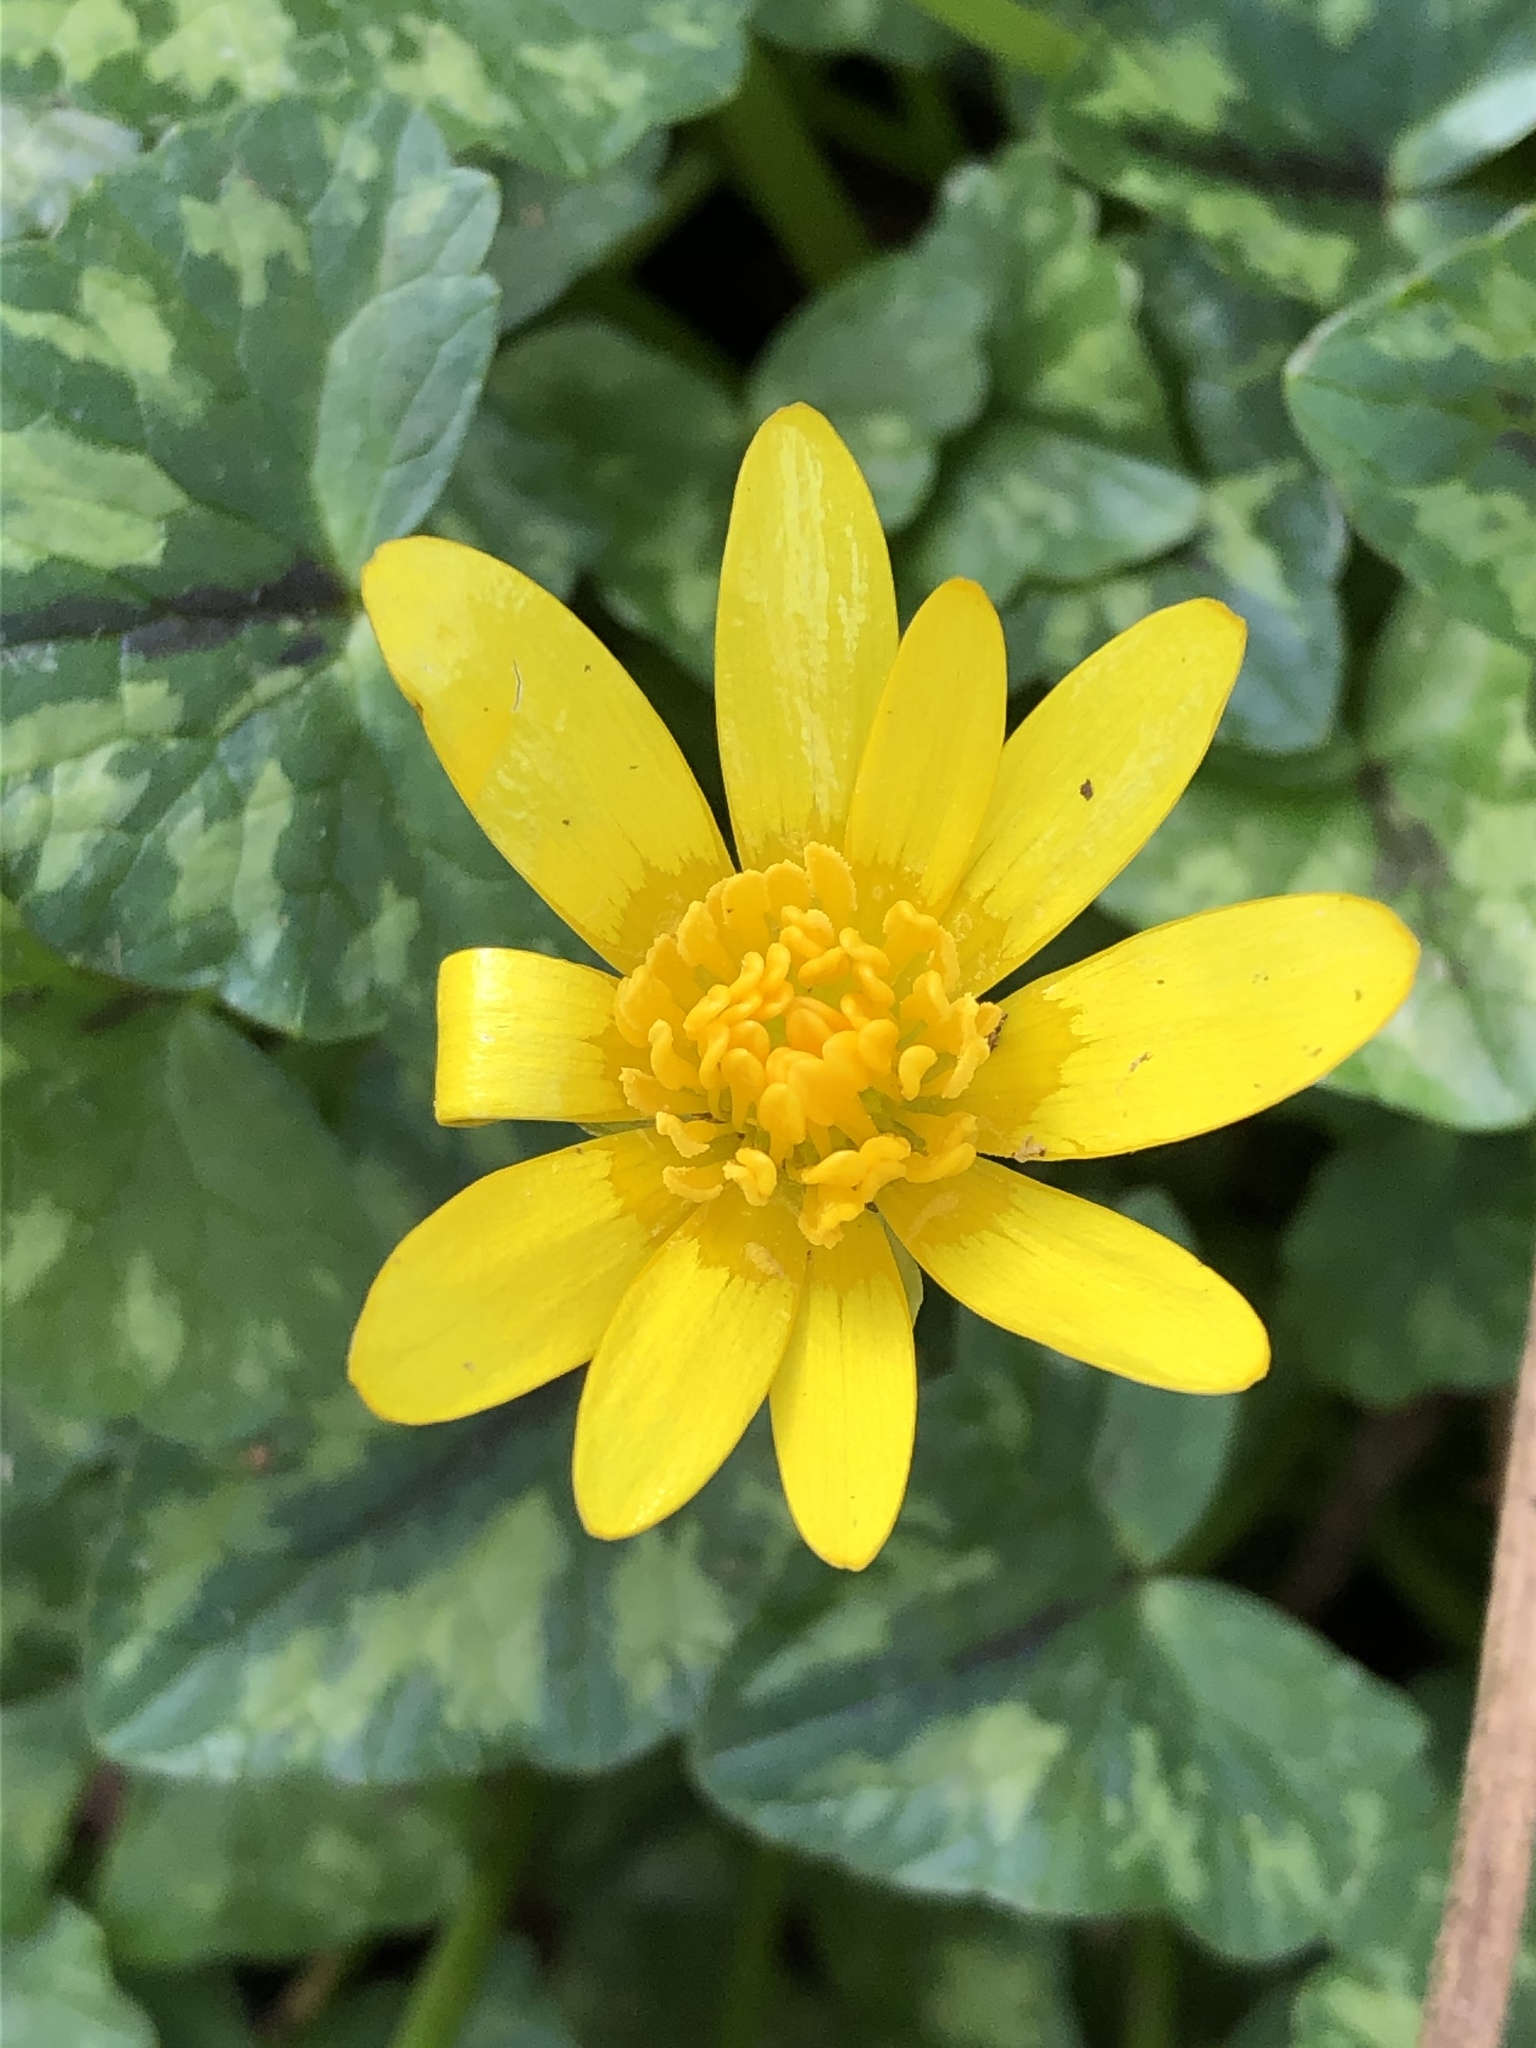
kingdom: Plantae
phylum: Tracheophyta
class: Magnoliopsida
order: Ranunculales
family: Ranunculaceae
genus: Ficaria
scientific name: Ficaria verna
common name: Lesser celandine
